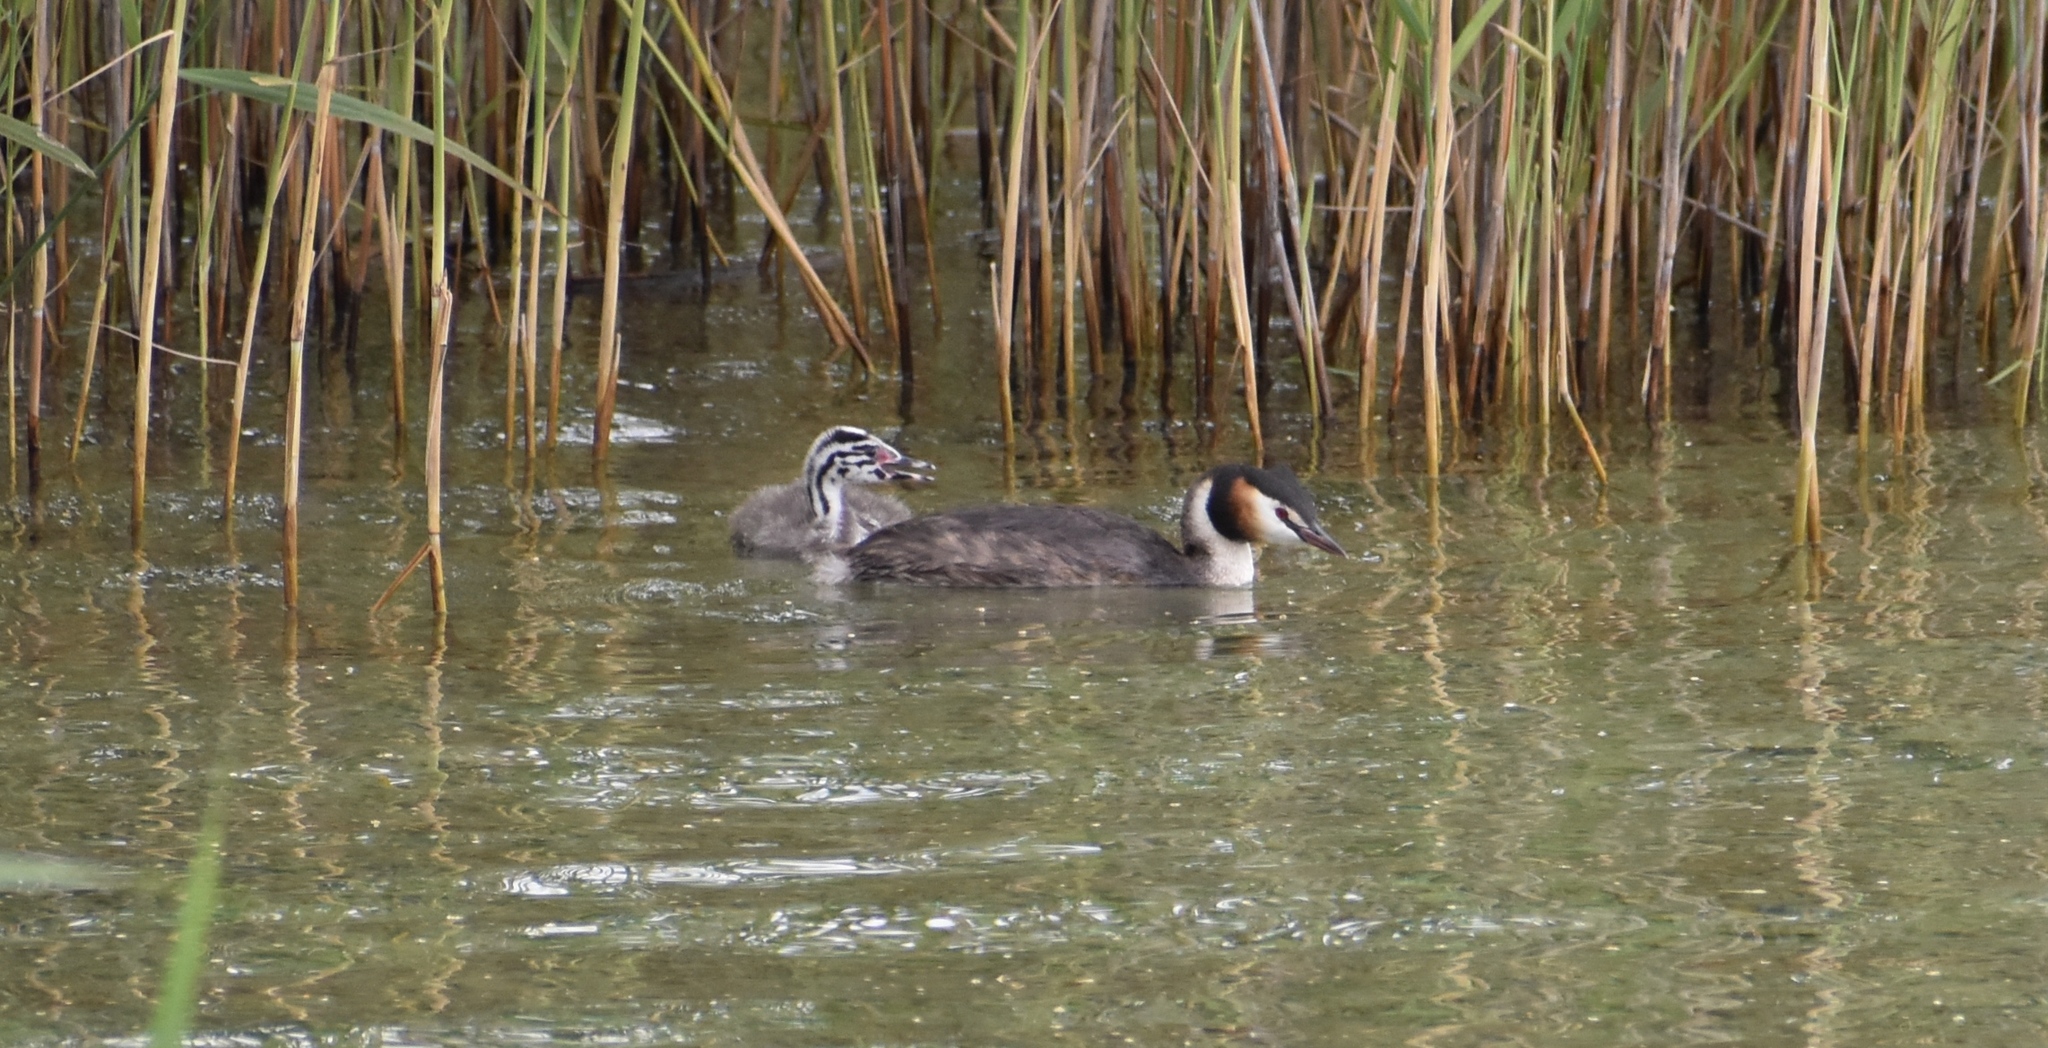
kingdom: Animalia
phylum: Chordata
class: Aves
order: Podicipediformes
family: Podicipedidae
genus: Podiceps
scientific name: Podiceps cristatus
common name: Great crested grebe
